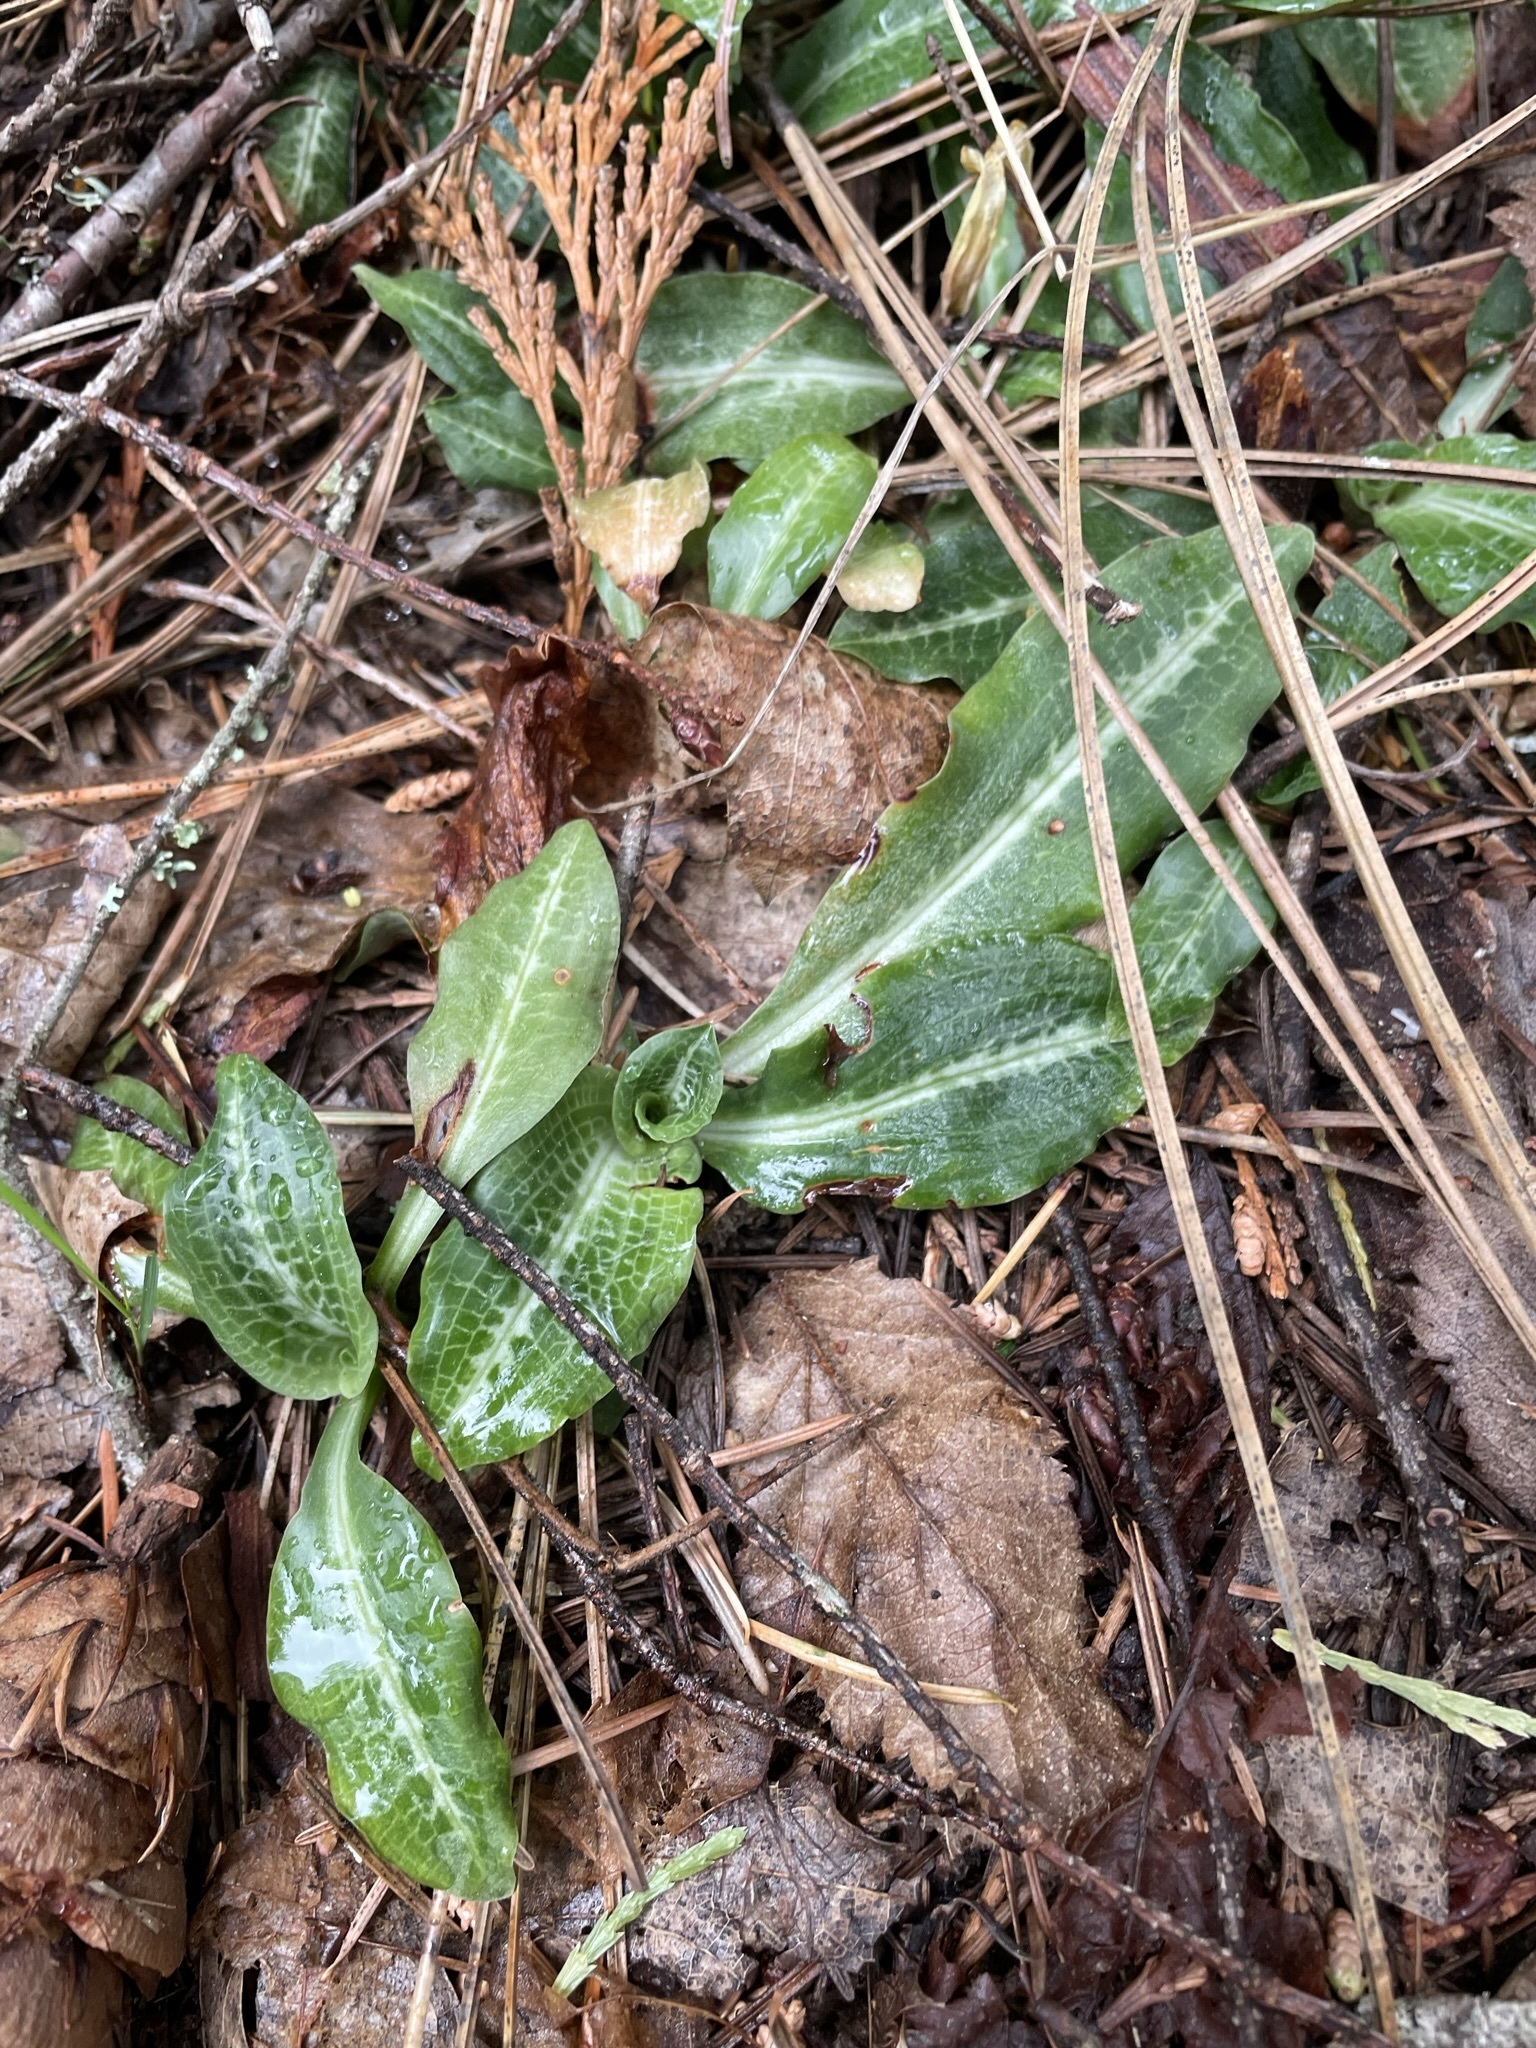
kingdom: Plantae
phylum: Tracheophyta
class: Liliopsida
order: Asparagales
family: Orchidaceae
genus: Goodyera
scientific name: Goodyera oblongifolia
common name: Giant rattlesnake-plantain
